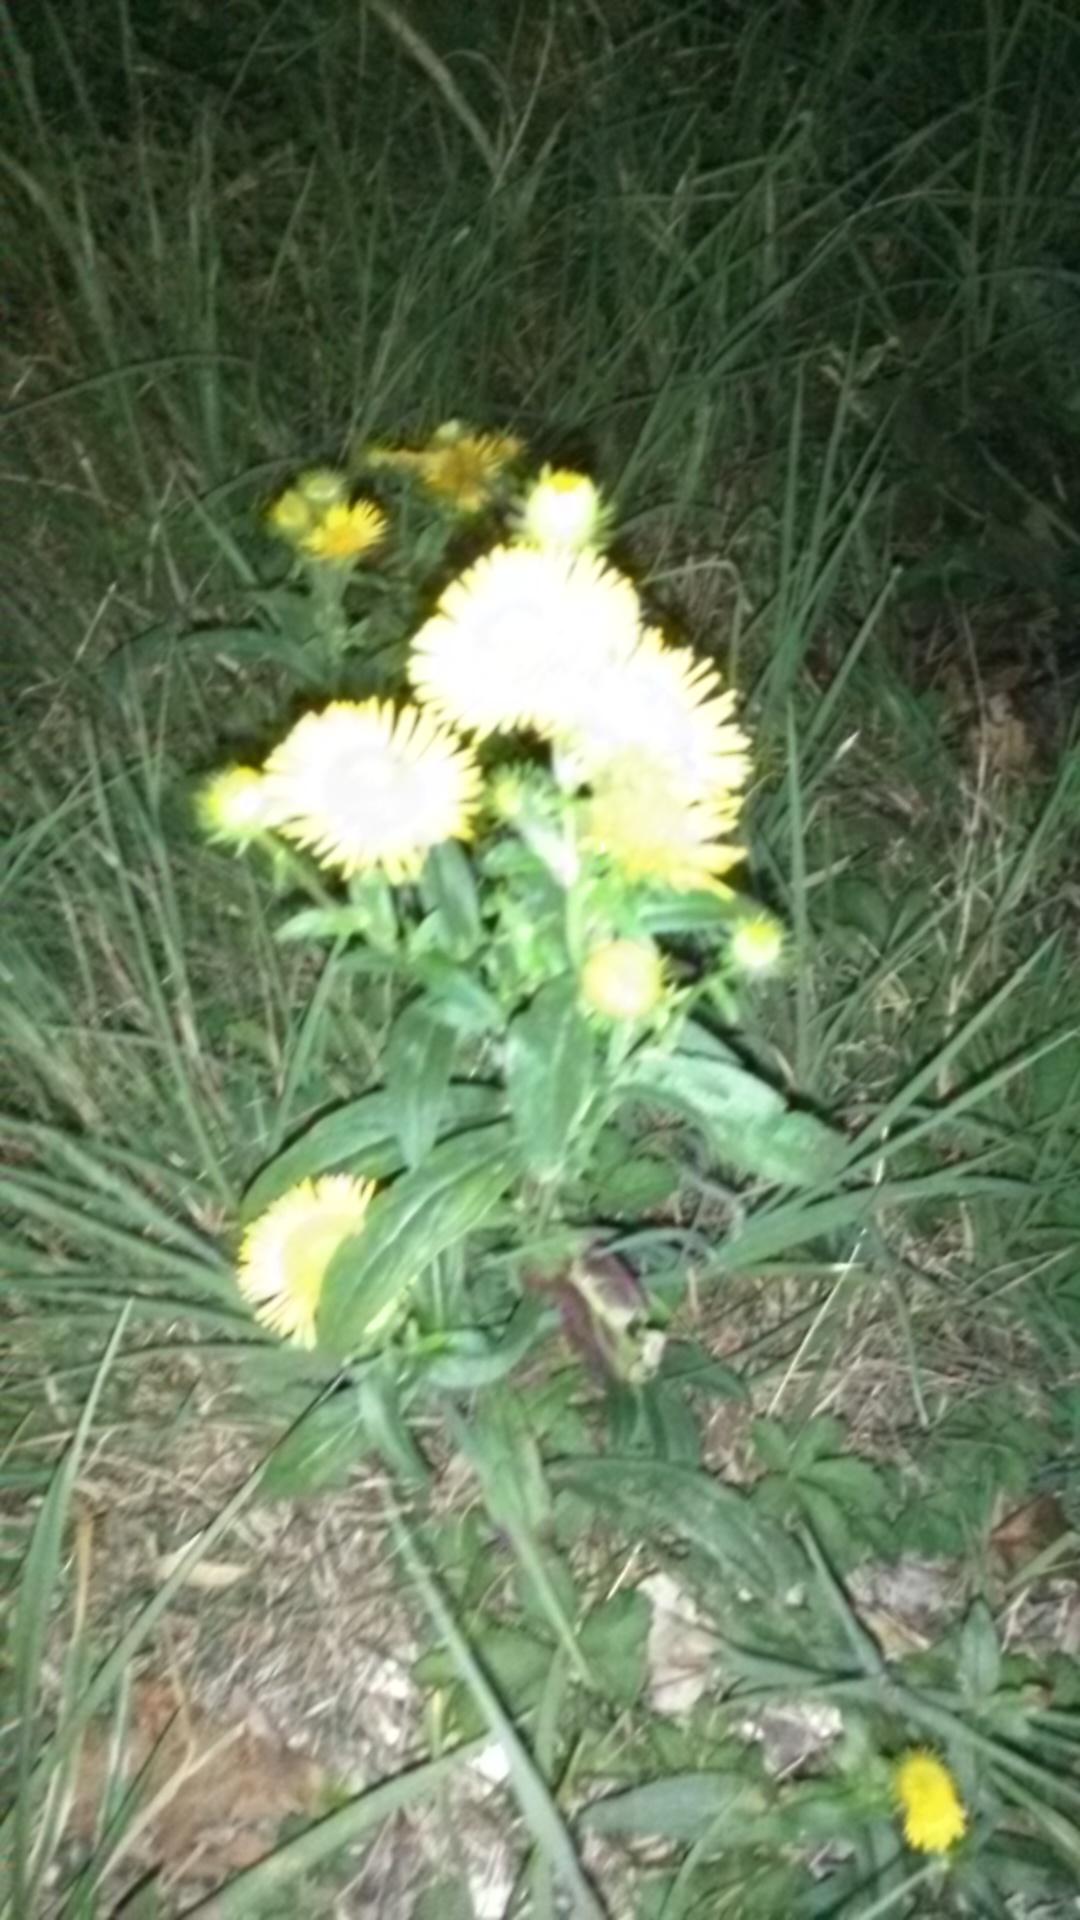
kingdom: Plantae
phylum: Tracheophyta
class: Magnoliopsida
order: Asterales
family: Asteraceae
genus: Pentanema
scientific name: Pentanema britannicum
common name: British elecampane
